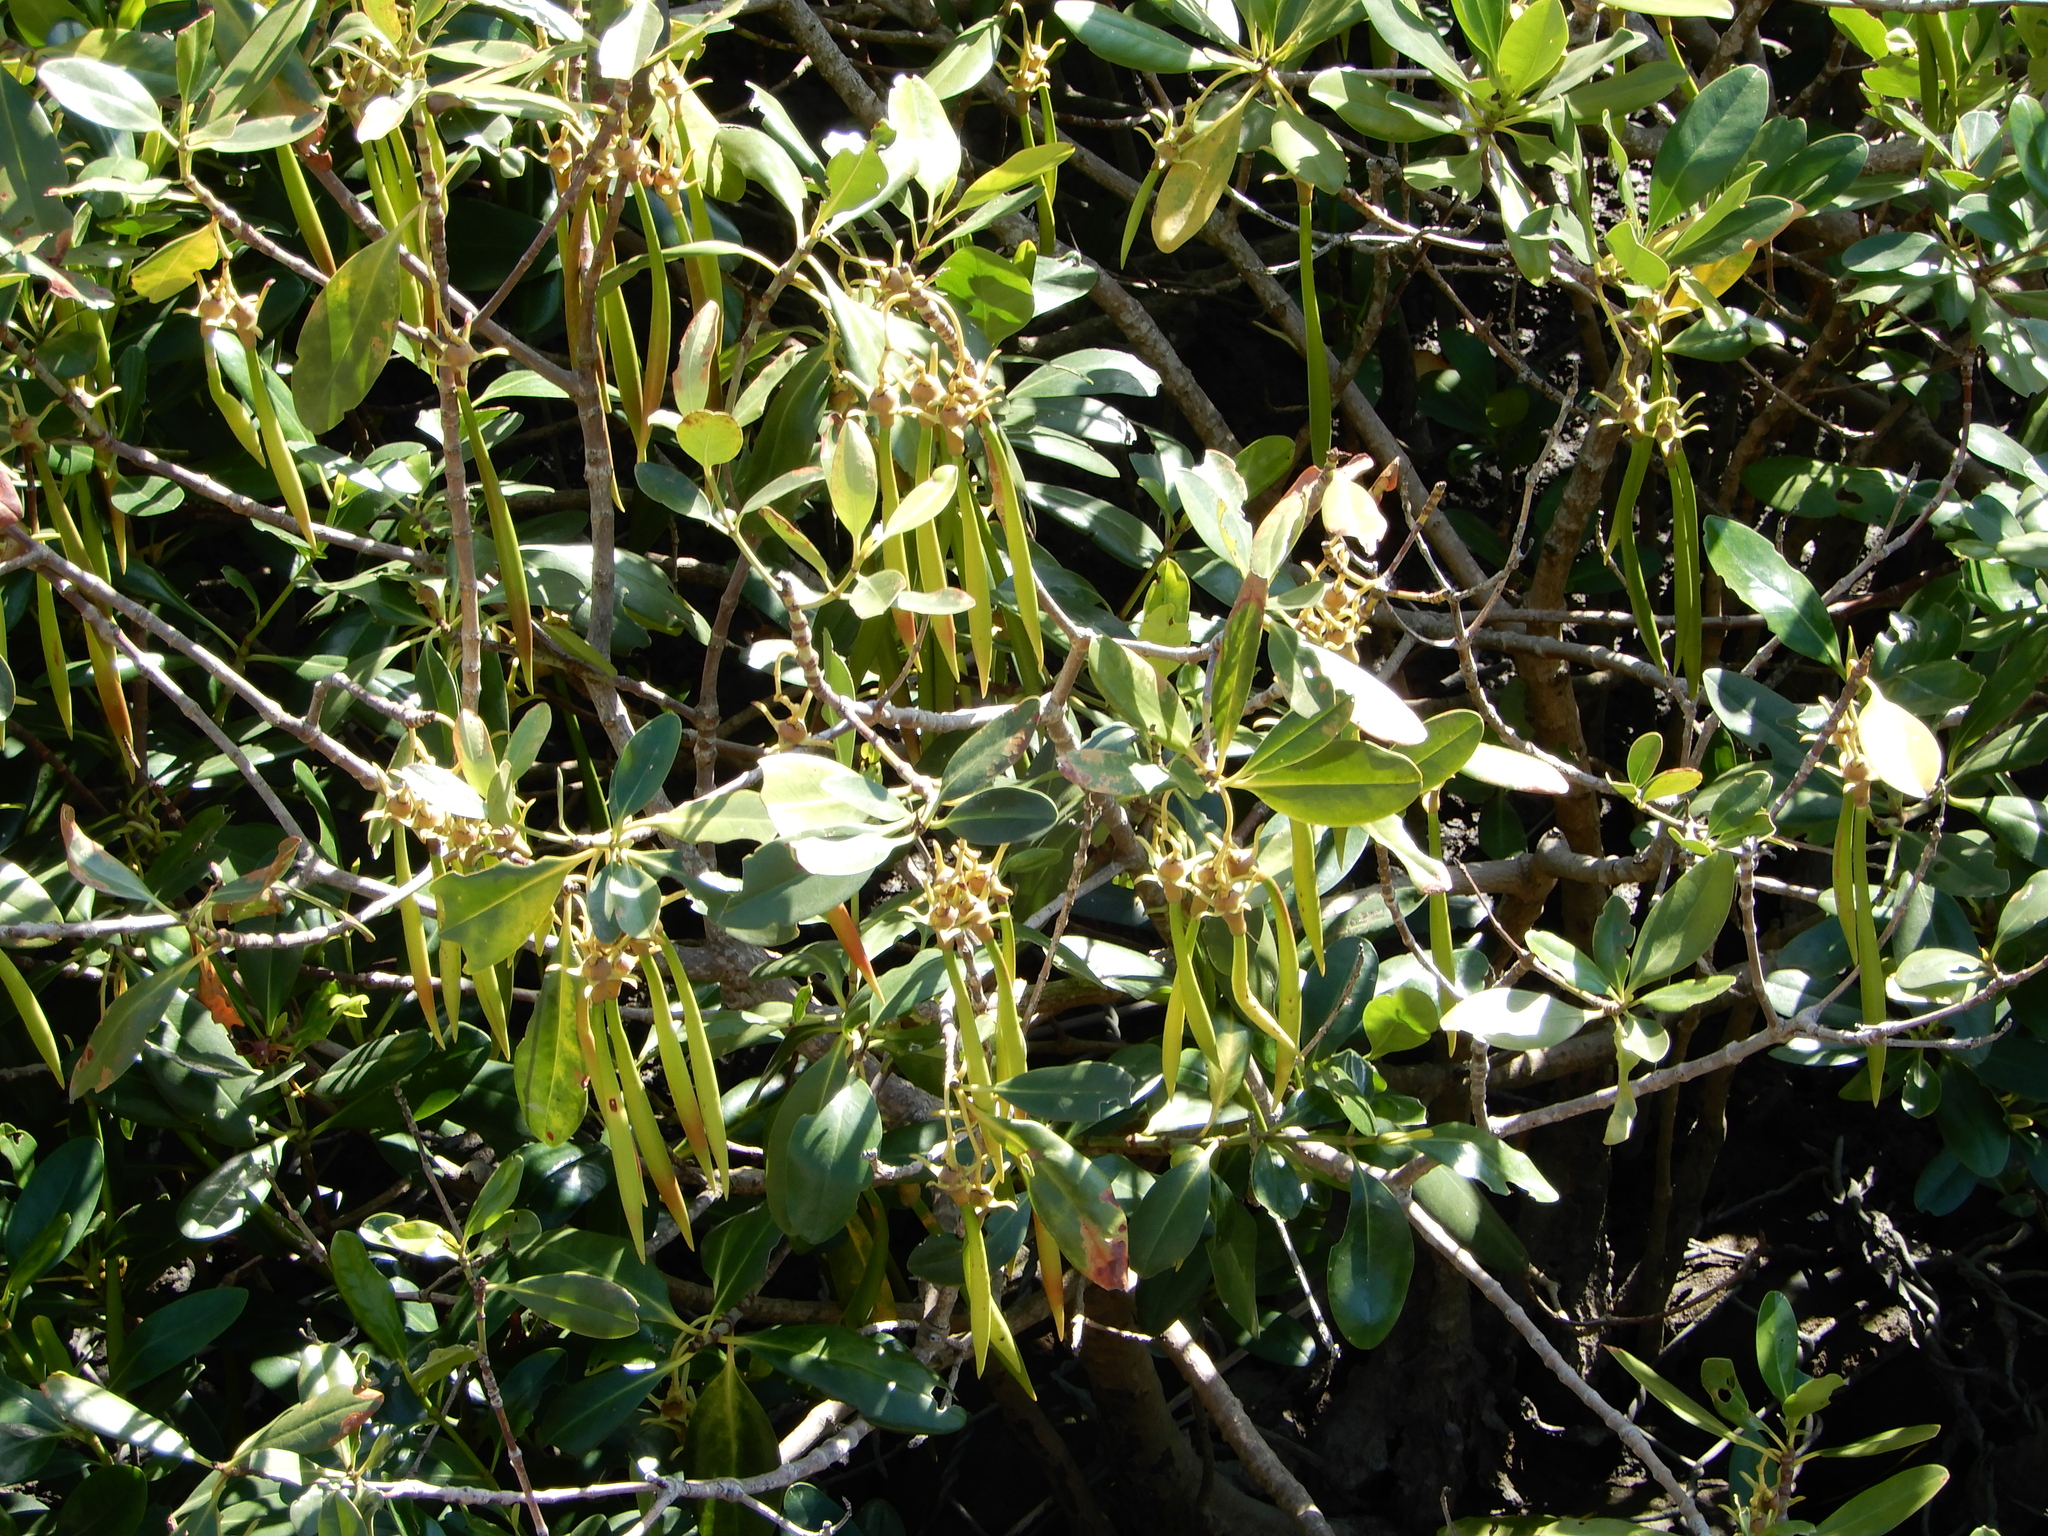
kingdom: Plantae
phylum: Tracheophyta
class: Magnoliopsida
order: Malpighiales
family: Rhizophoraceae
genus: Kandelia
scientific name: Kandelia obovata
